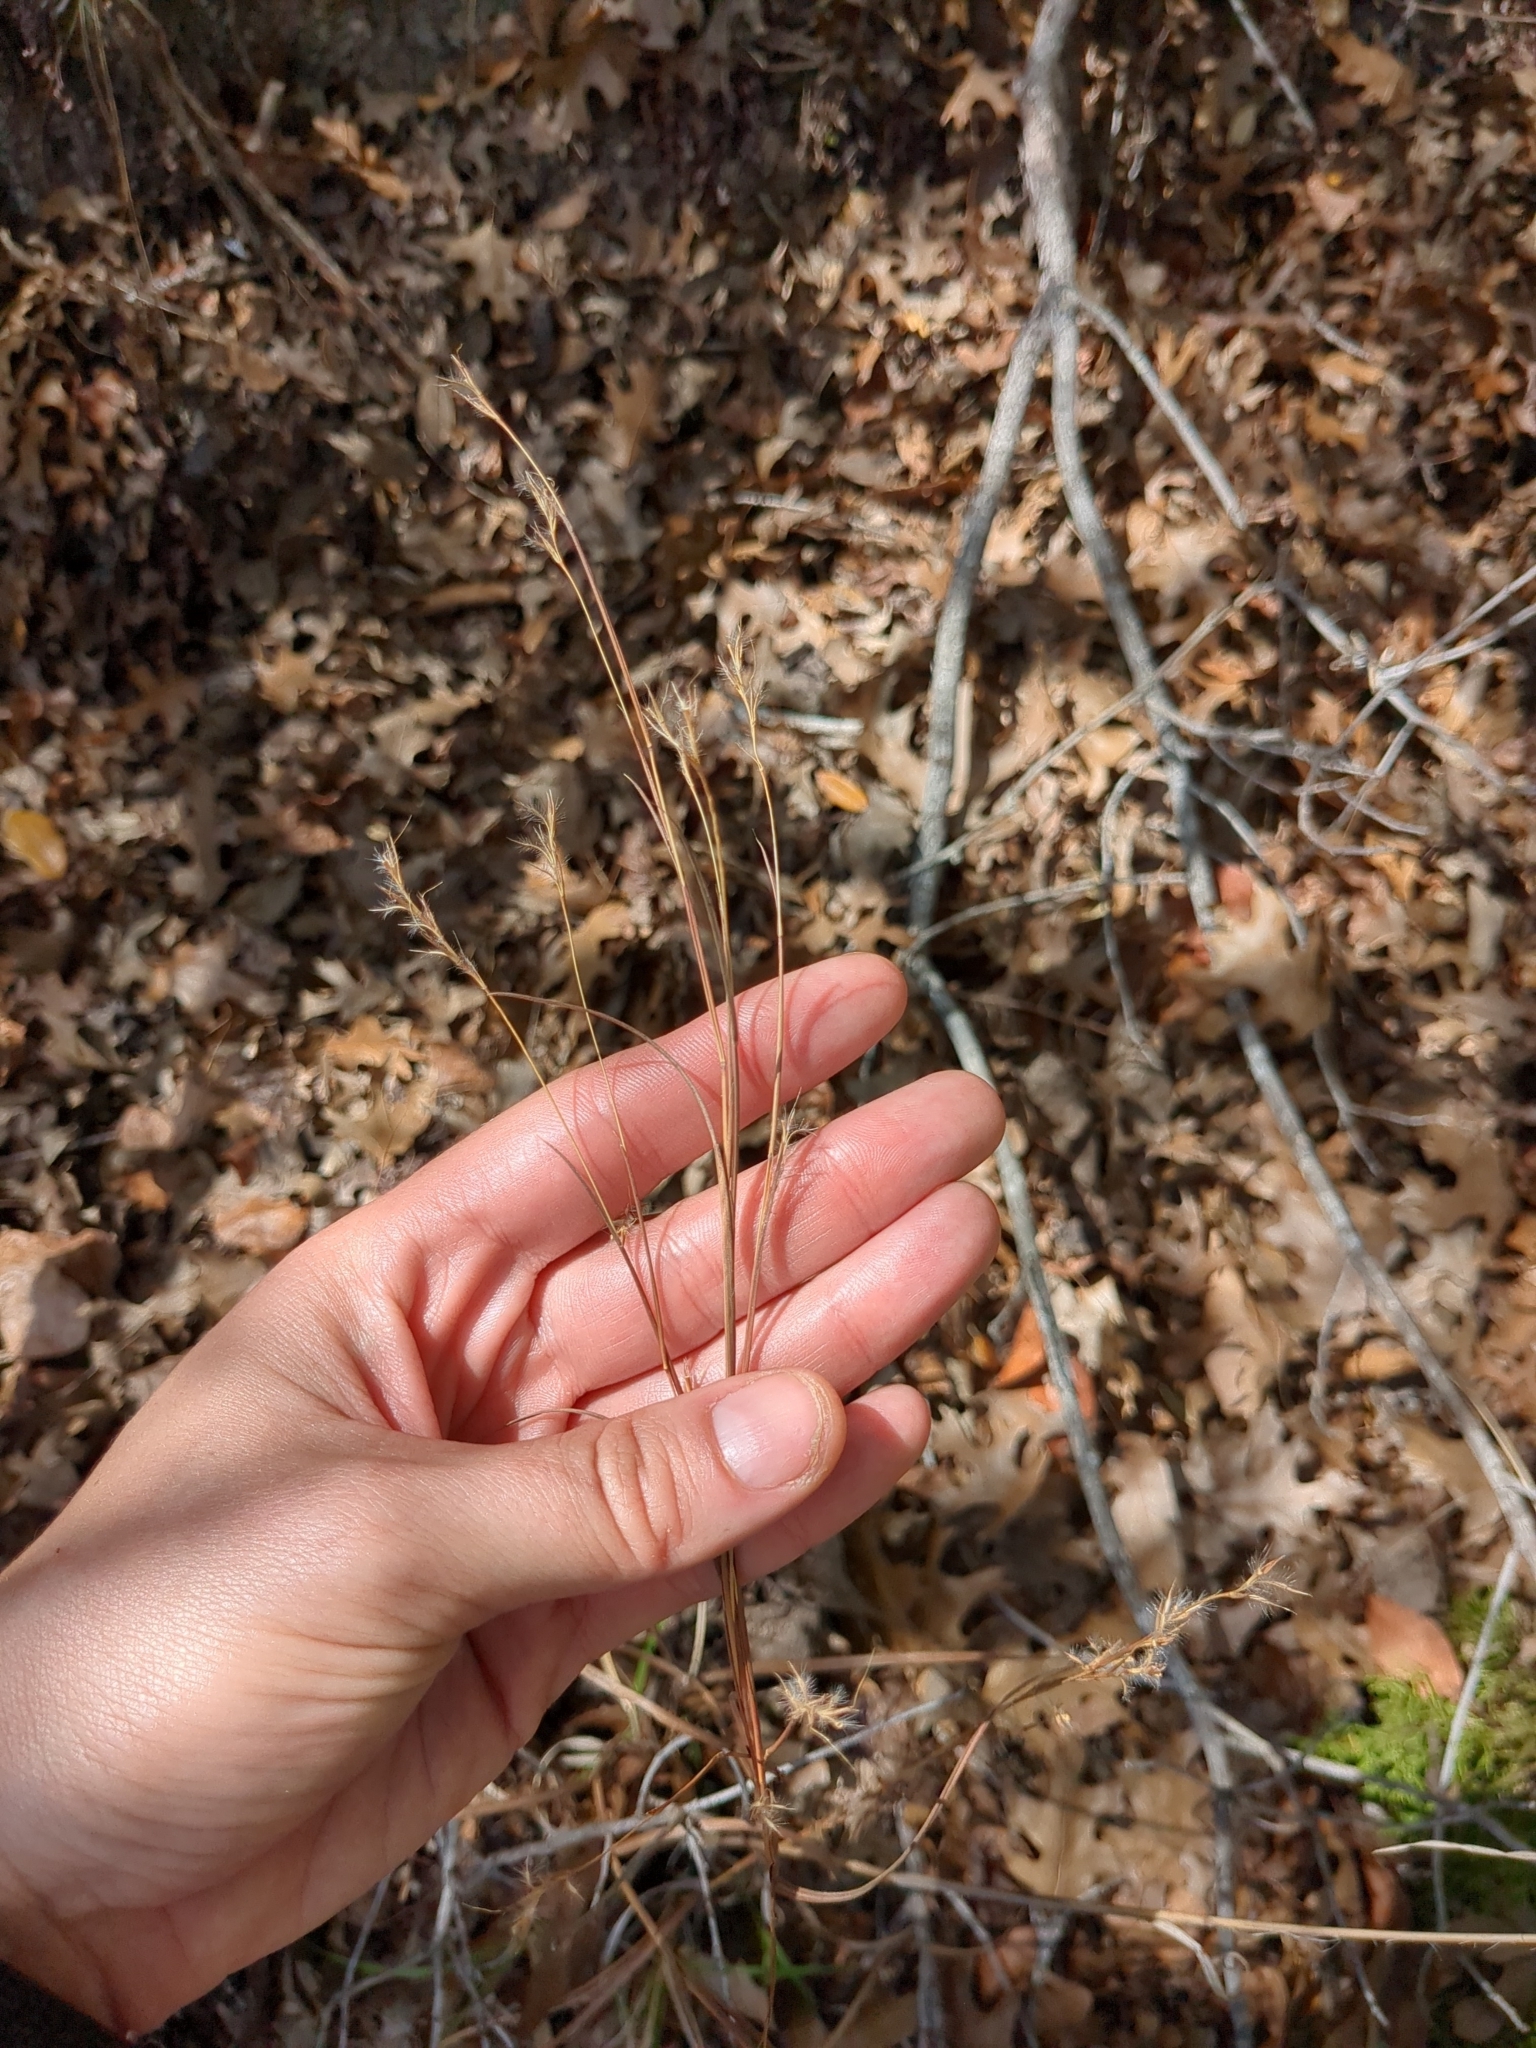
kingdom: Plantae
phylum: Tracheophyta
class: Liliopsida
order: Poales
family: Poaceae
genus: Schizachyrium
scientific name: Schizachyrium scoparium
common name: Little bluestem
